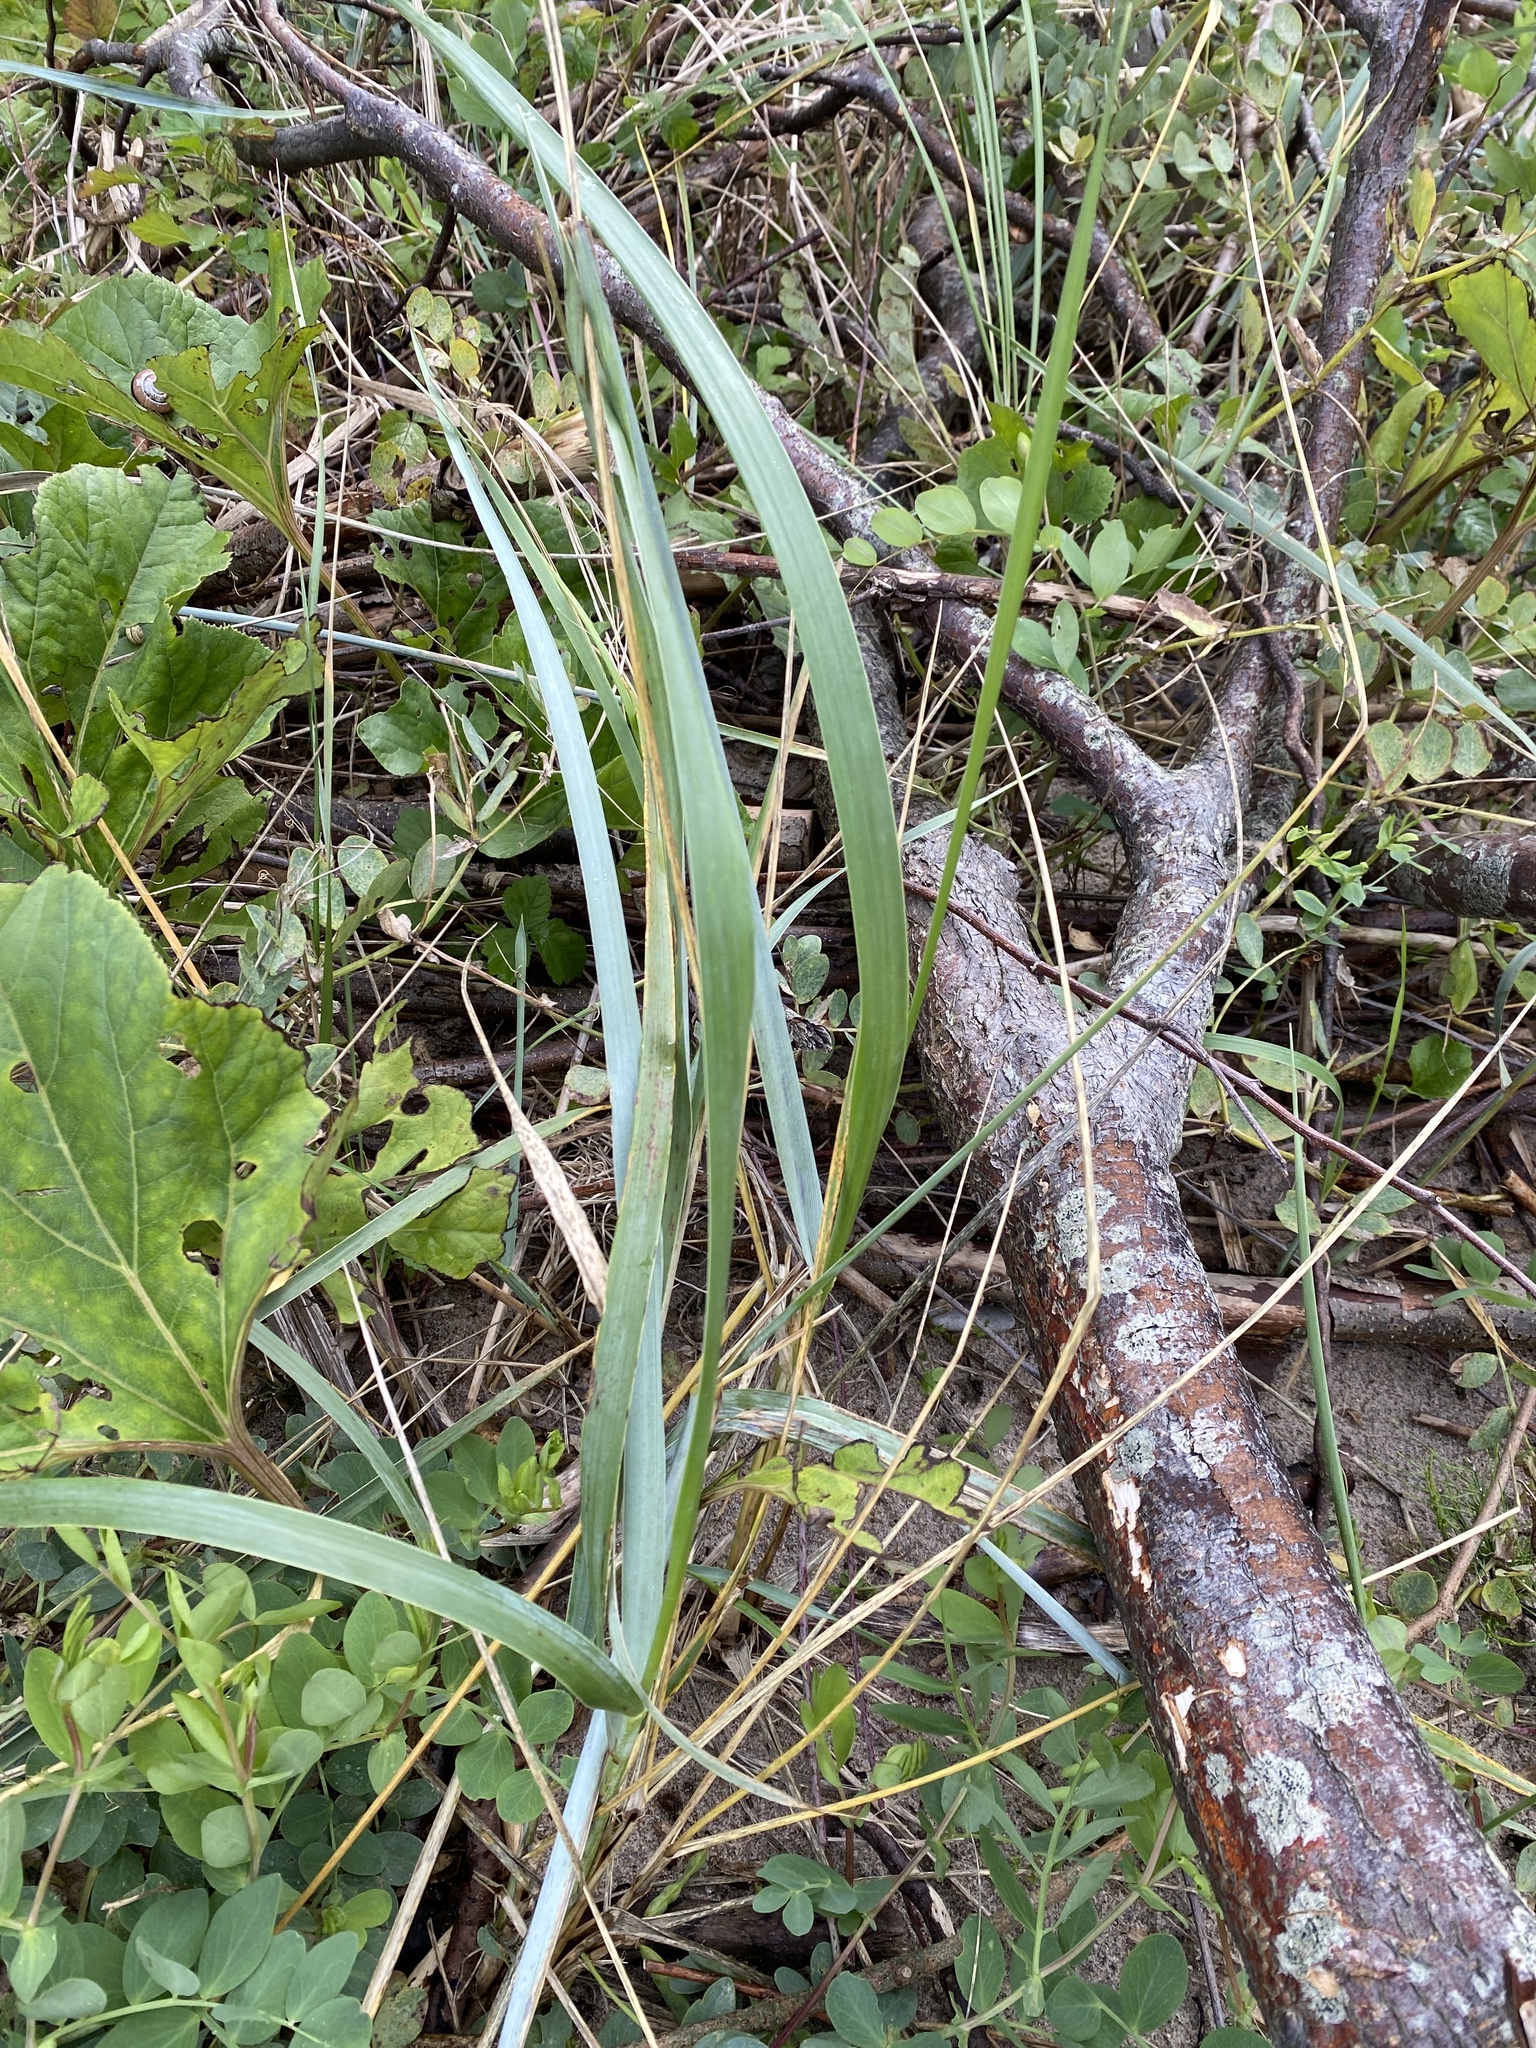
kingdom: Plantae
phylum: Tracheophyta
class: Liliopsida
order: Poales
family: Poaceae
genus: Leymus
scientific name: Leymus arenarius
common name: Lyme-grass
